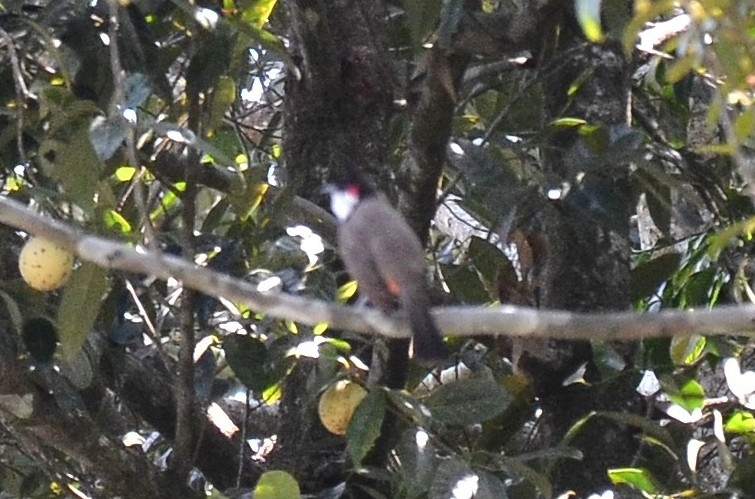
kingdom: Animalia
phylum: Chordata
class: Aves
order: Passeriformes
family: Pycnonotidae
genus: Pycnonotus
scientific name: Pycnonotus jocosus
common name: Red-whiskered bulbul
